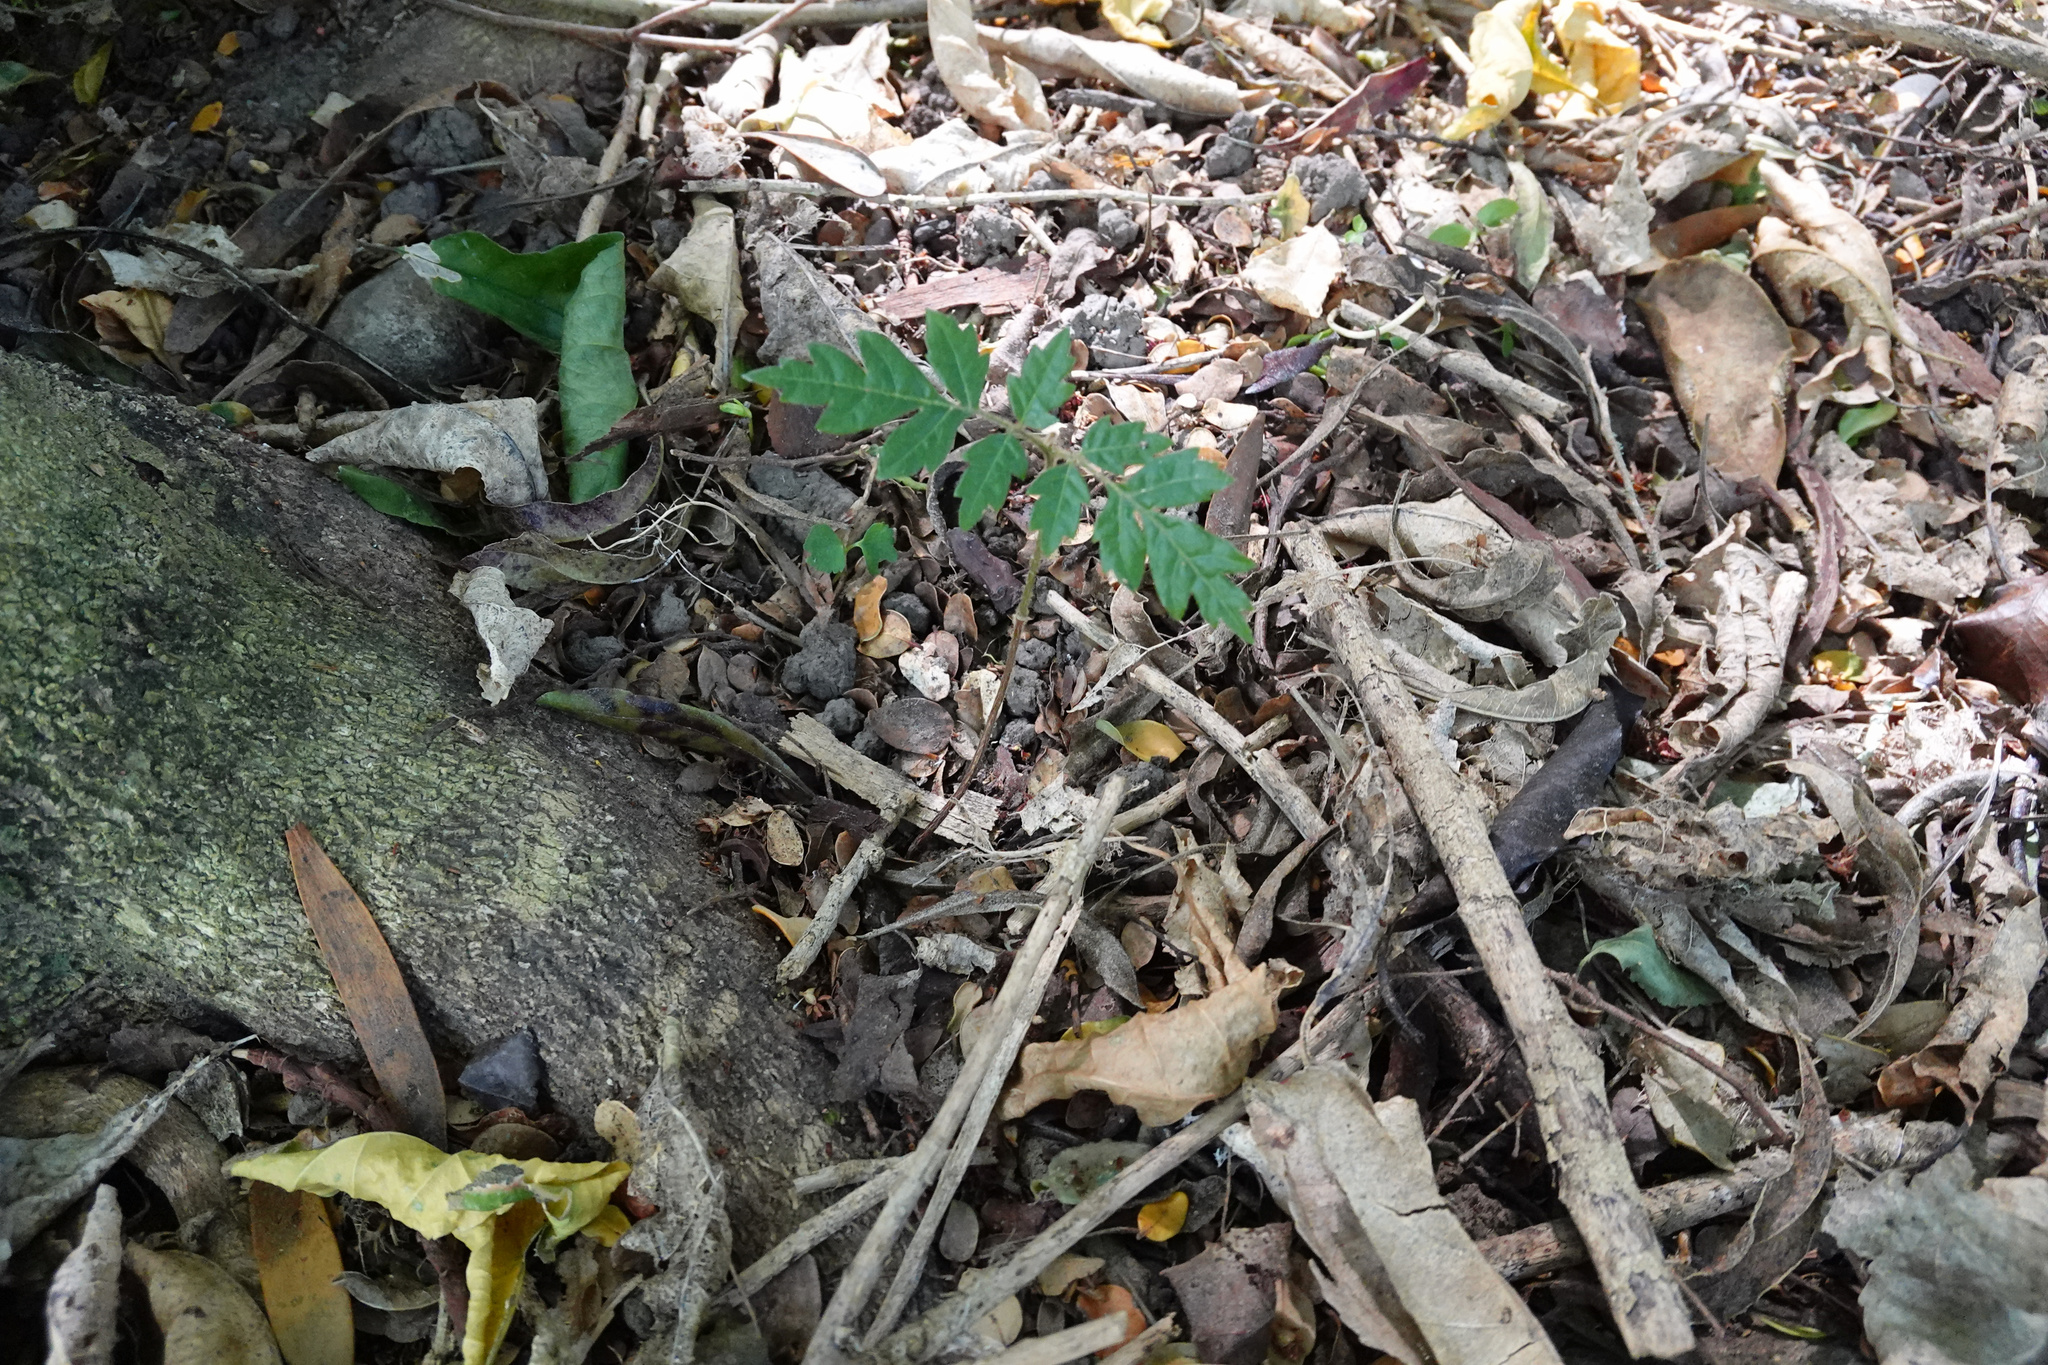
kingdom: Plantae
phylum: Tracheophyta
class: Magnoliopsida
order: Sapindales
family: Sapindaceae
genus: Alectryon
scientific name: Alectryon excelsus
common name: Three kings titoki
